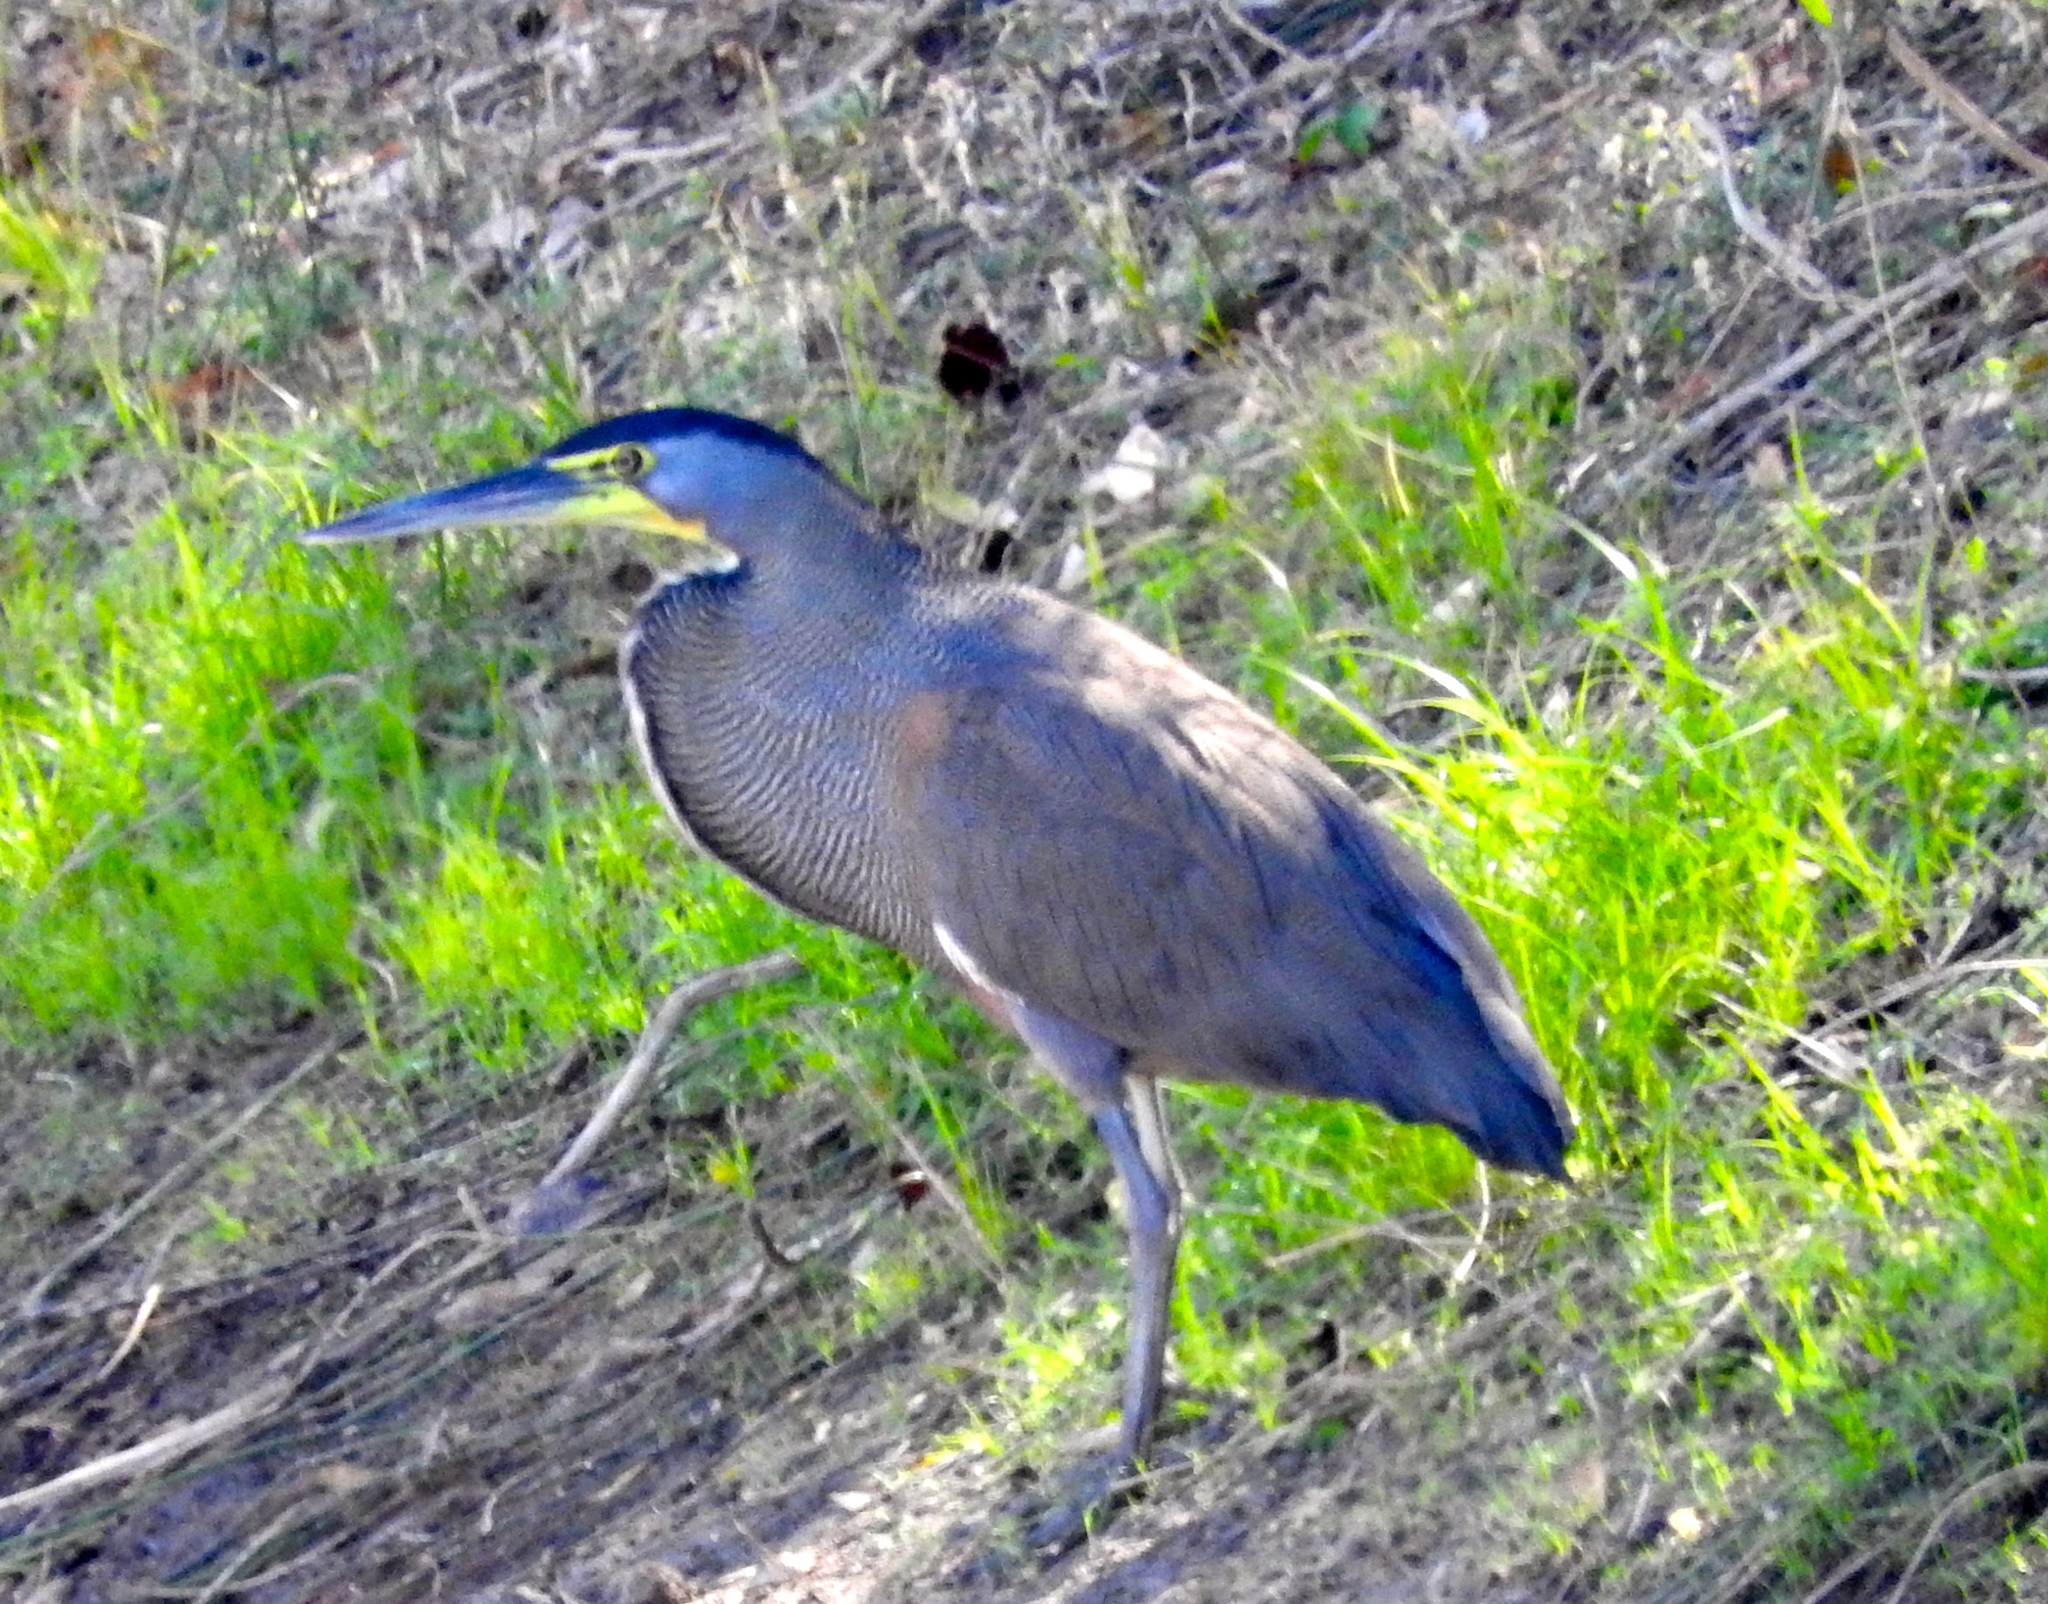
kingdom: Animalia
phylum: Chordata
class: Aves
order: Pelecaniformes
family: Ardeidae
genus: Tigrisoma
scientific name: Tigrisoma mexicanum
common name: Bare-throated tiger-heron
